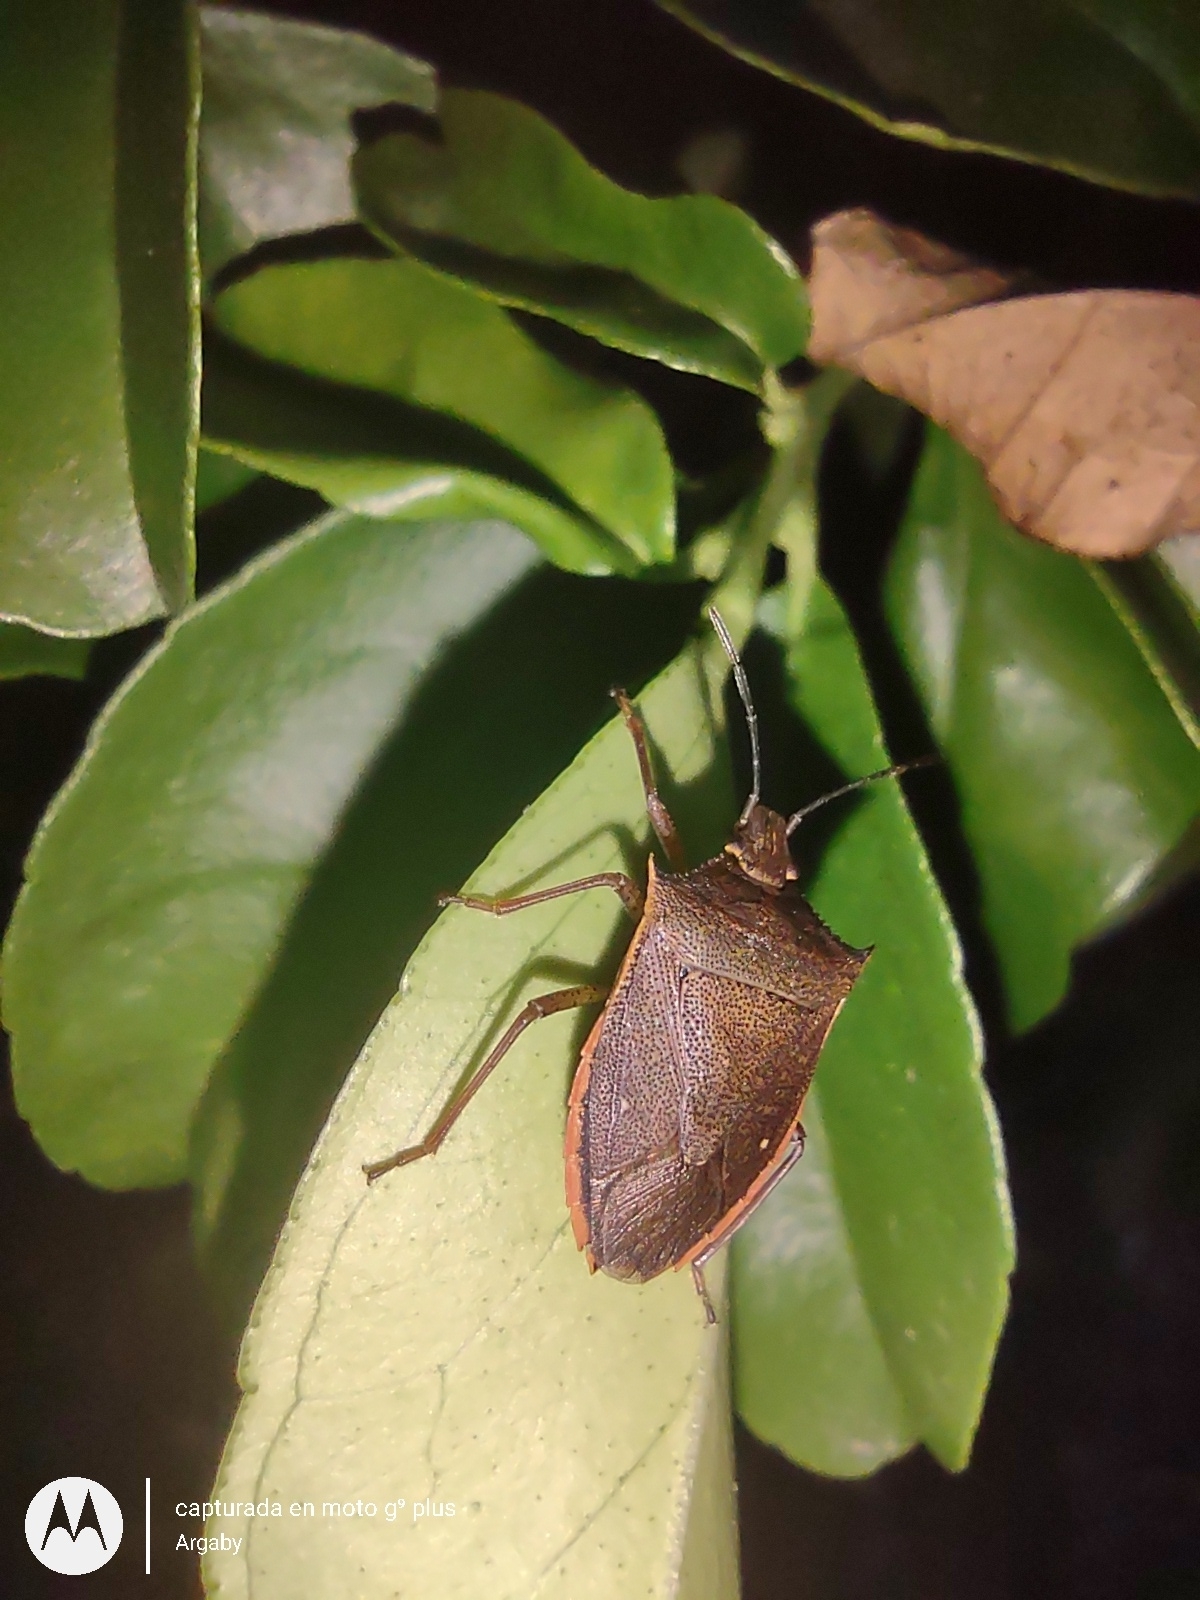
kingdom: Animalia
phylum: Arthropoda
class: Insecta
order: Hemiptera
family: Pentatomidae
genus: Euschistus
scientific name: Euschistus
